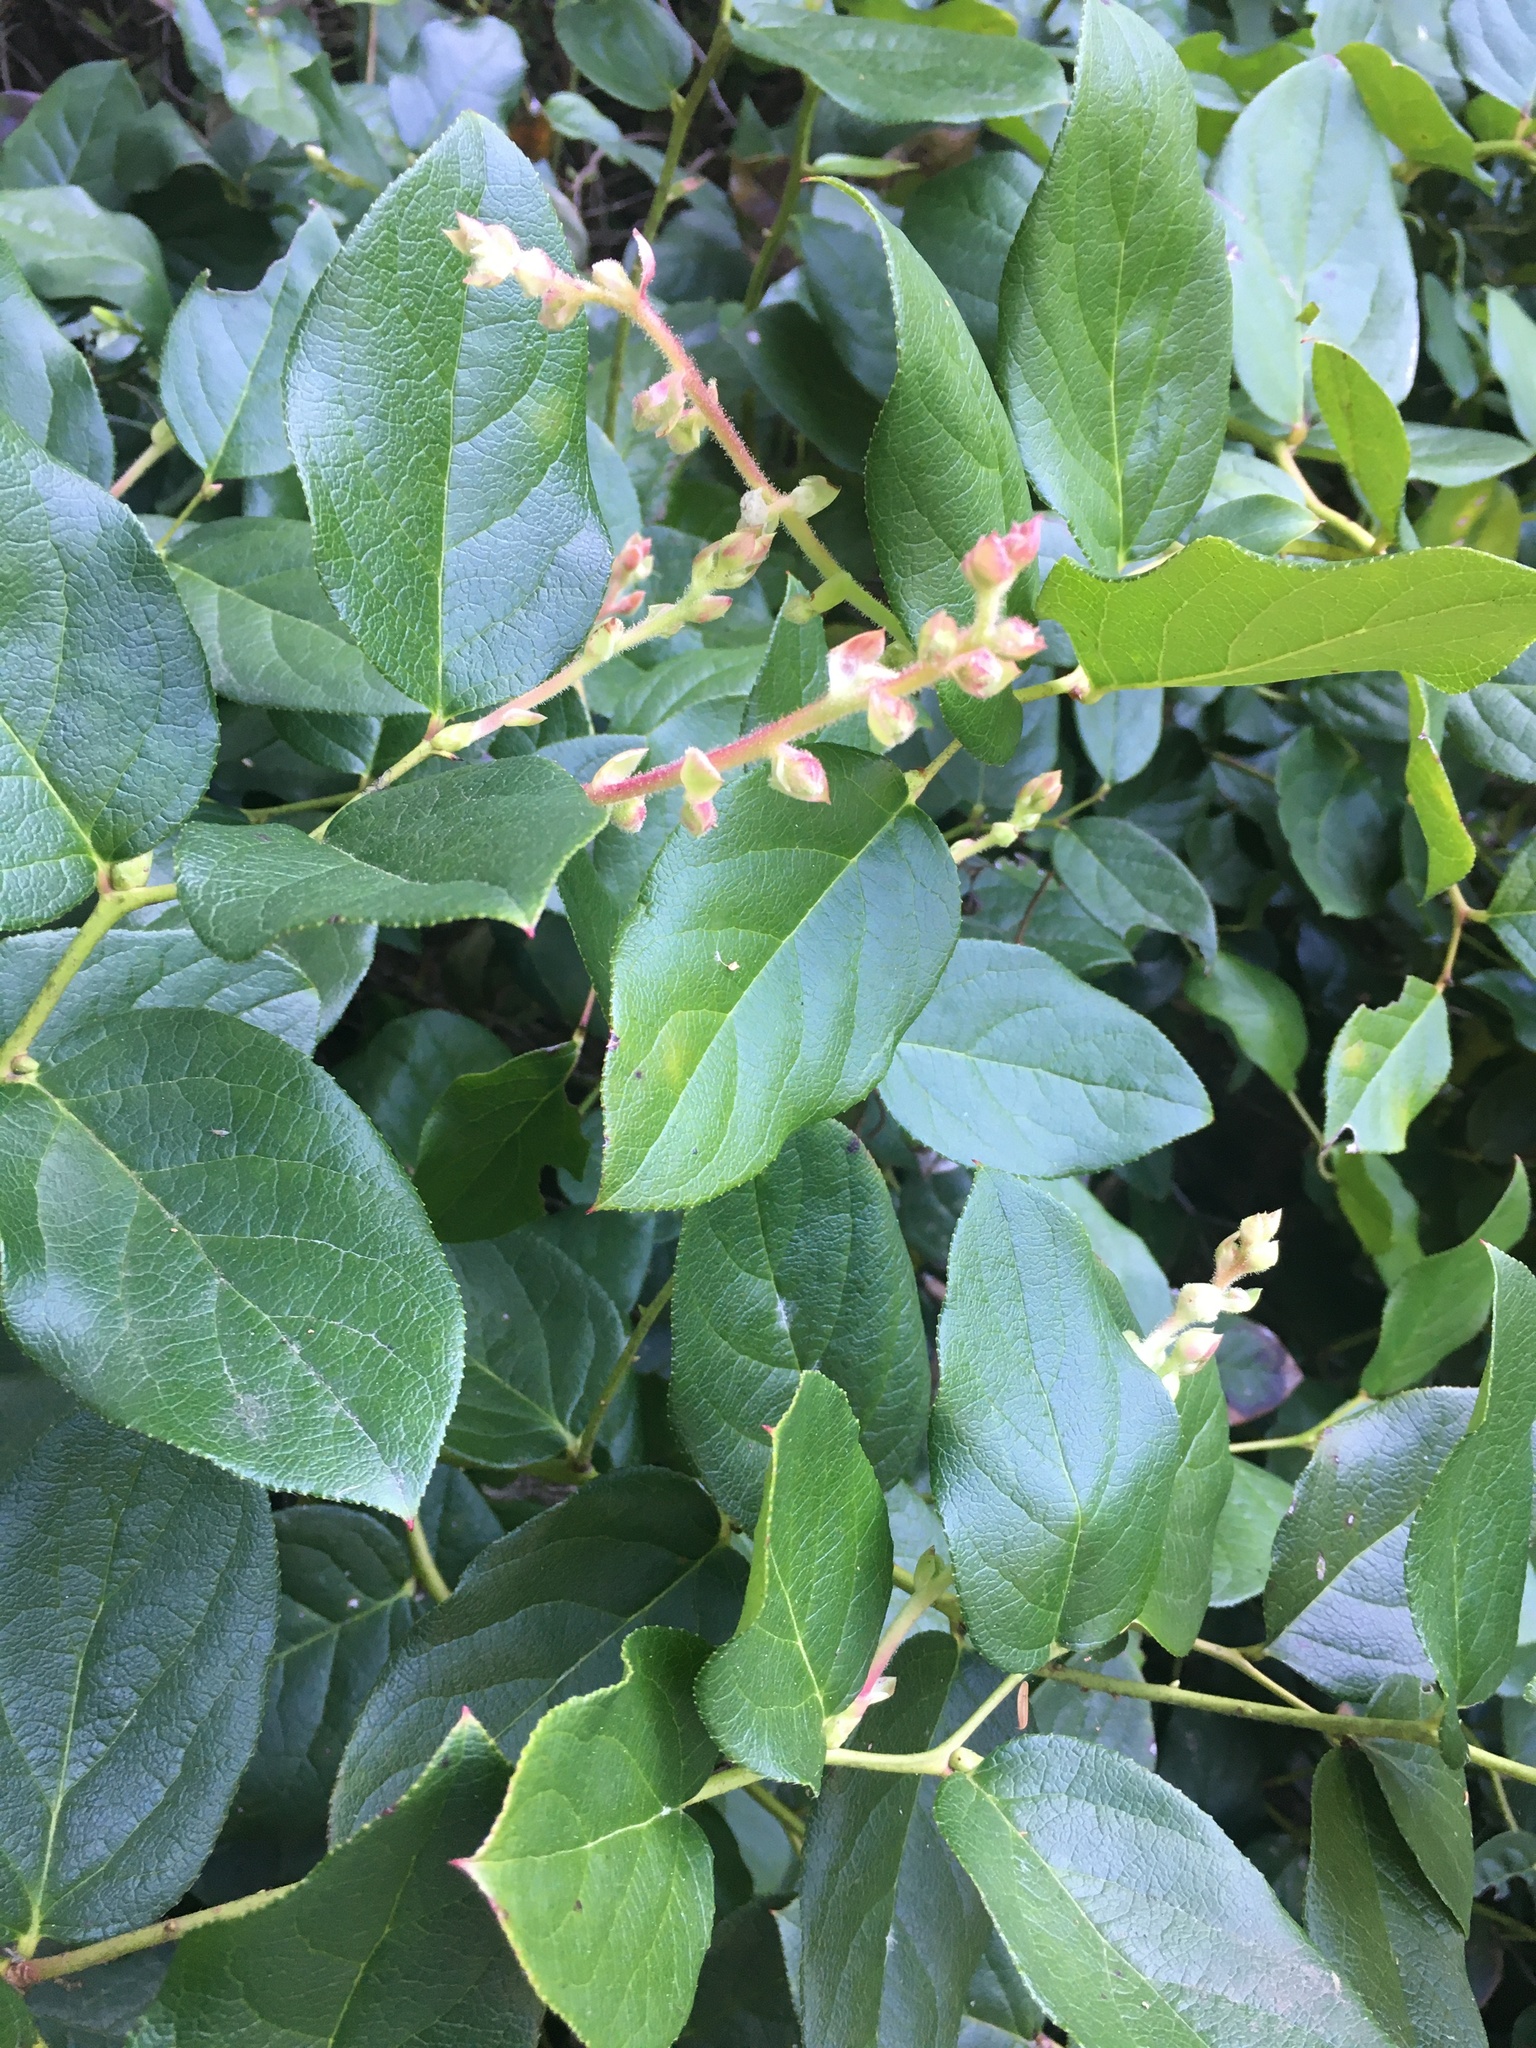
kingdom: Plantae
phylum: Tracheophyta
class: Magnoliopsida
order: Ericales
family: Ericaceae
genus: Gaultheria
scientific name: Gaultheria shallon
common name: Shallon
